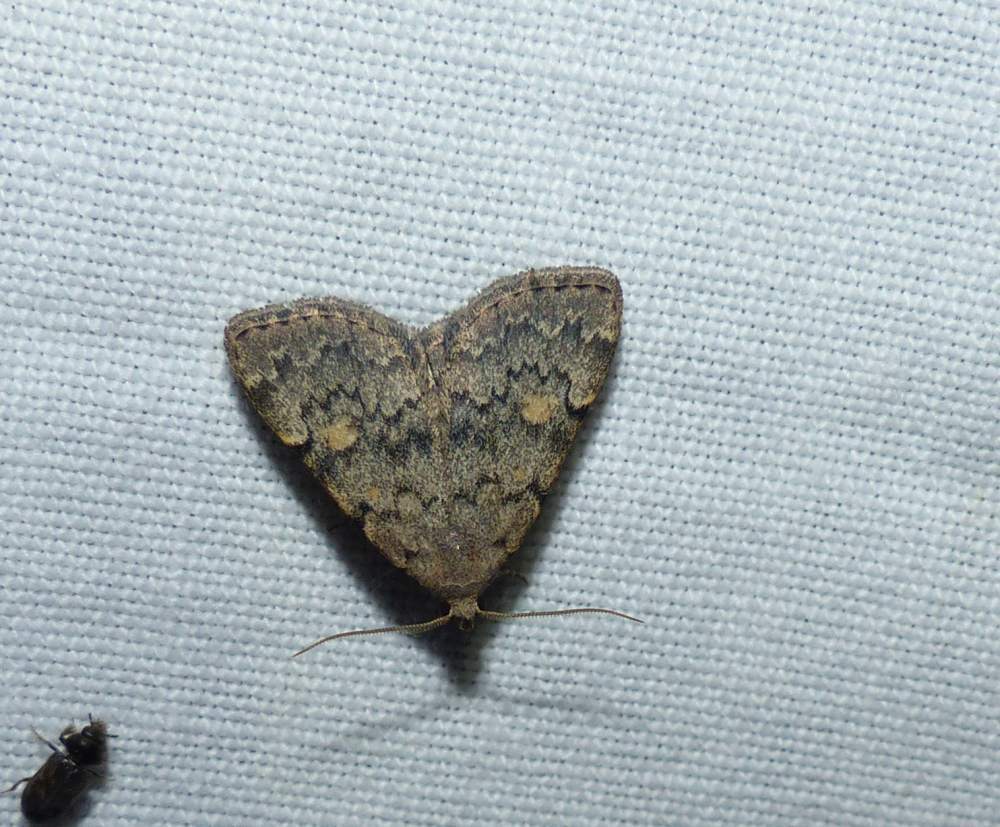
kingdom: Animalia
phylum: Arthropoda
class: Insecta
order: Lepidoptera
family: Erebidae
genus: Idia
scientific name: Idia aemula
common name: Common idia moth
